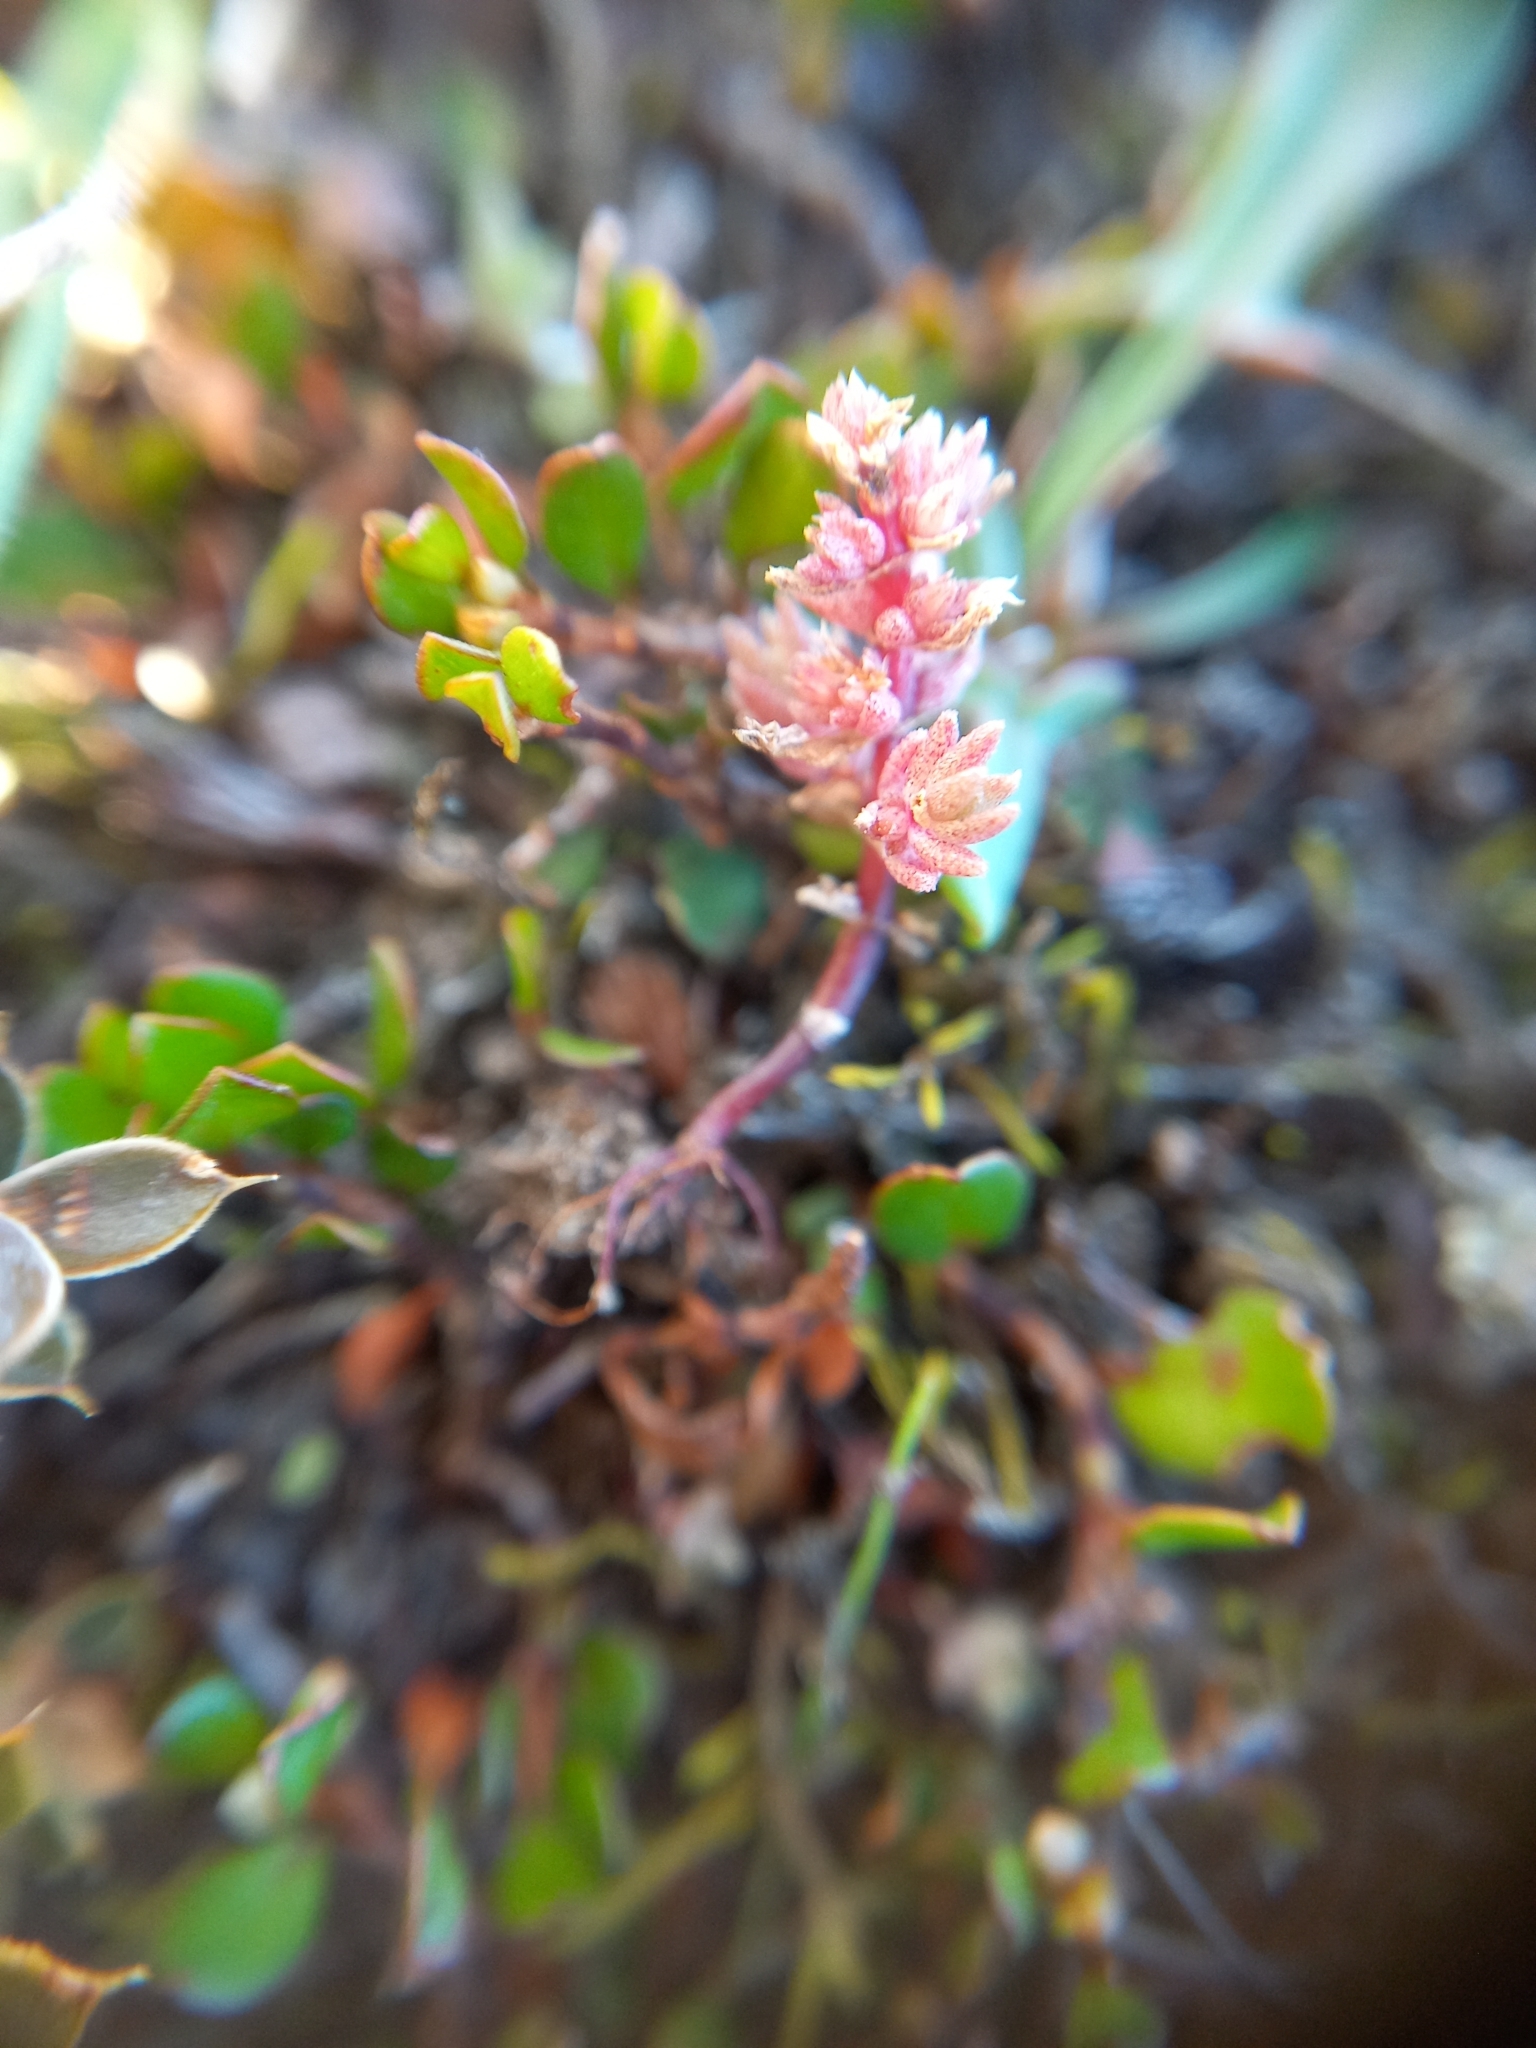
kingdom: Plantae
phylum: Tracheophyta
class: Magnoliopsida
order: Saxifragales
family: Crassulaceae
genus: Crassula
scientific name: Crassula sieberiana
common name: Siberian pygmyweed
